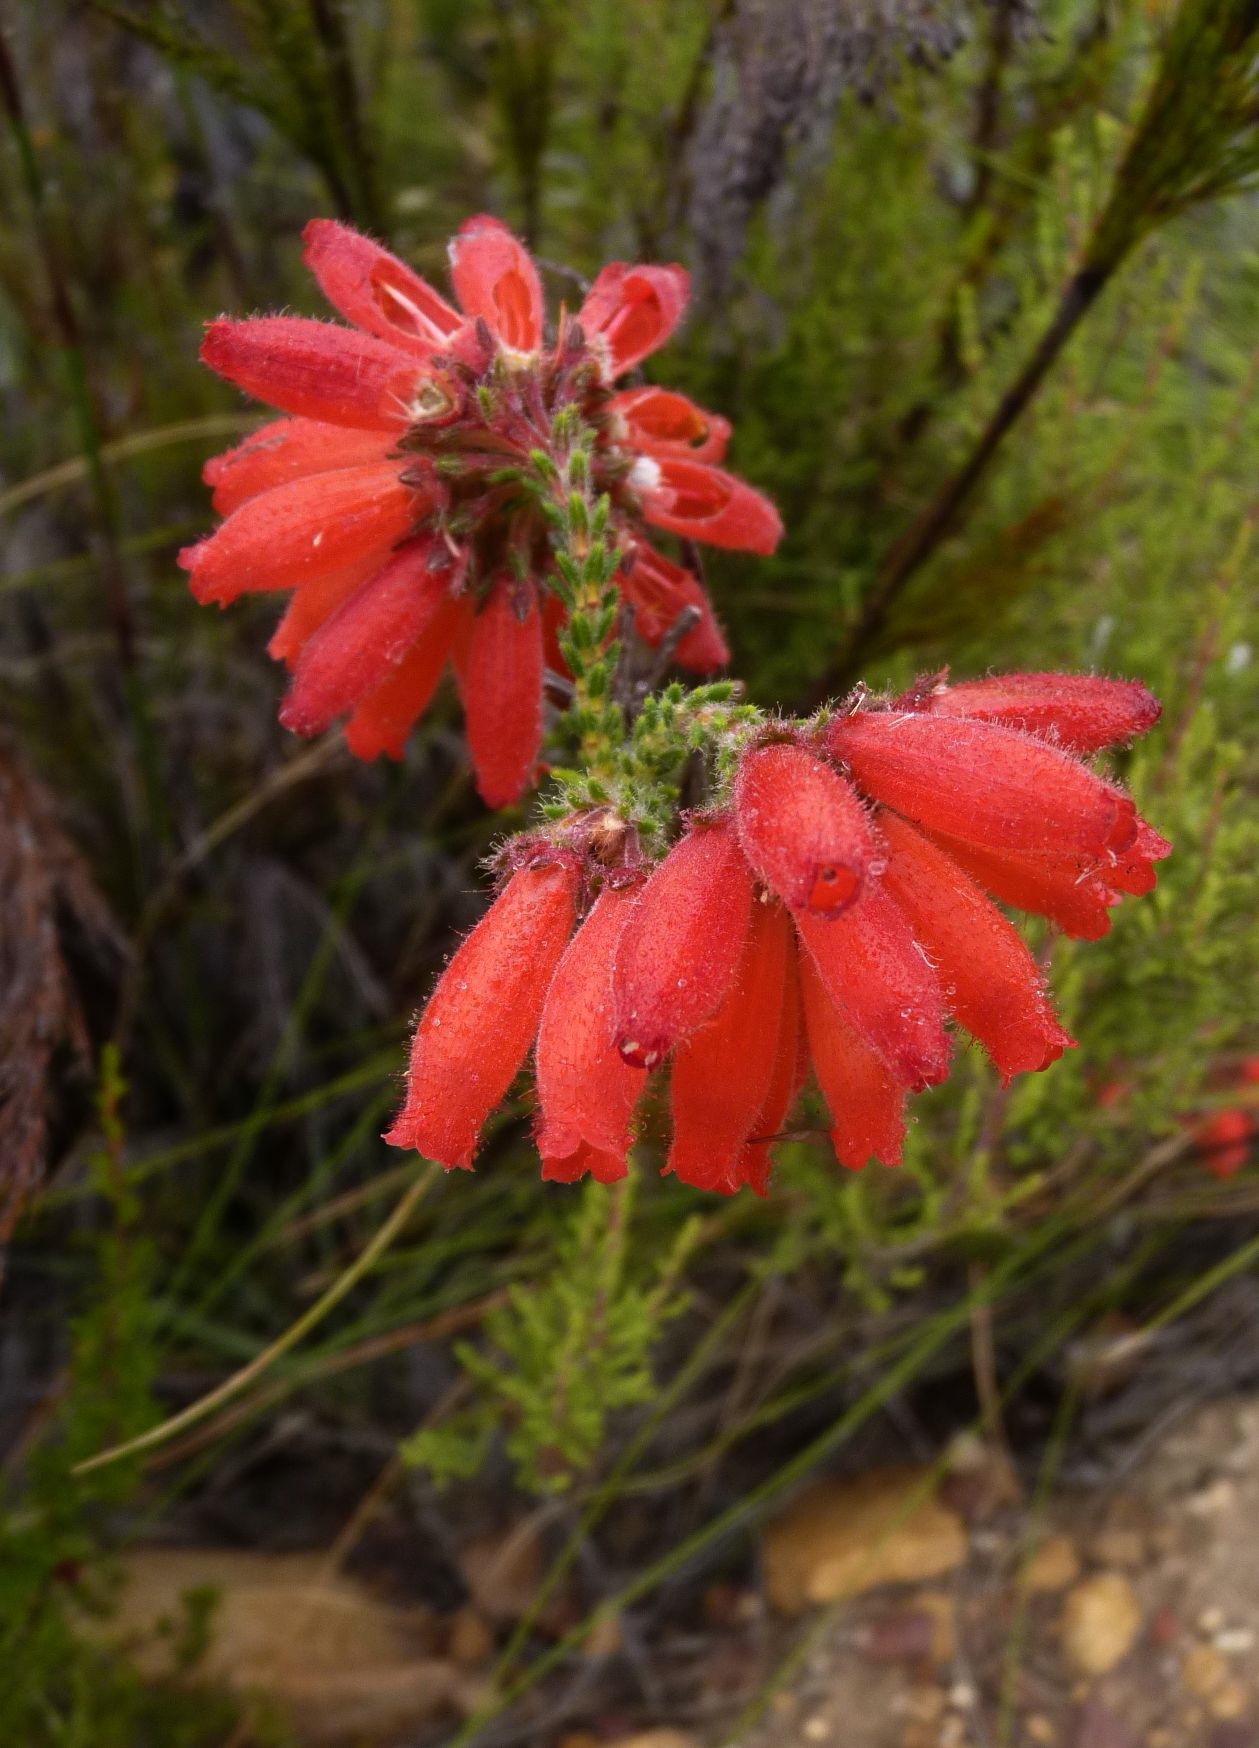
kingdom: Plantae
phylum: Tracheophyta
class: Magnoliopsida
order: Ericales
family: Ericaceae
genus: Erica
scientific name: Erica cerinthoides
